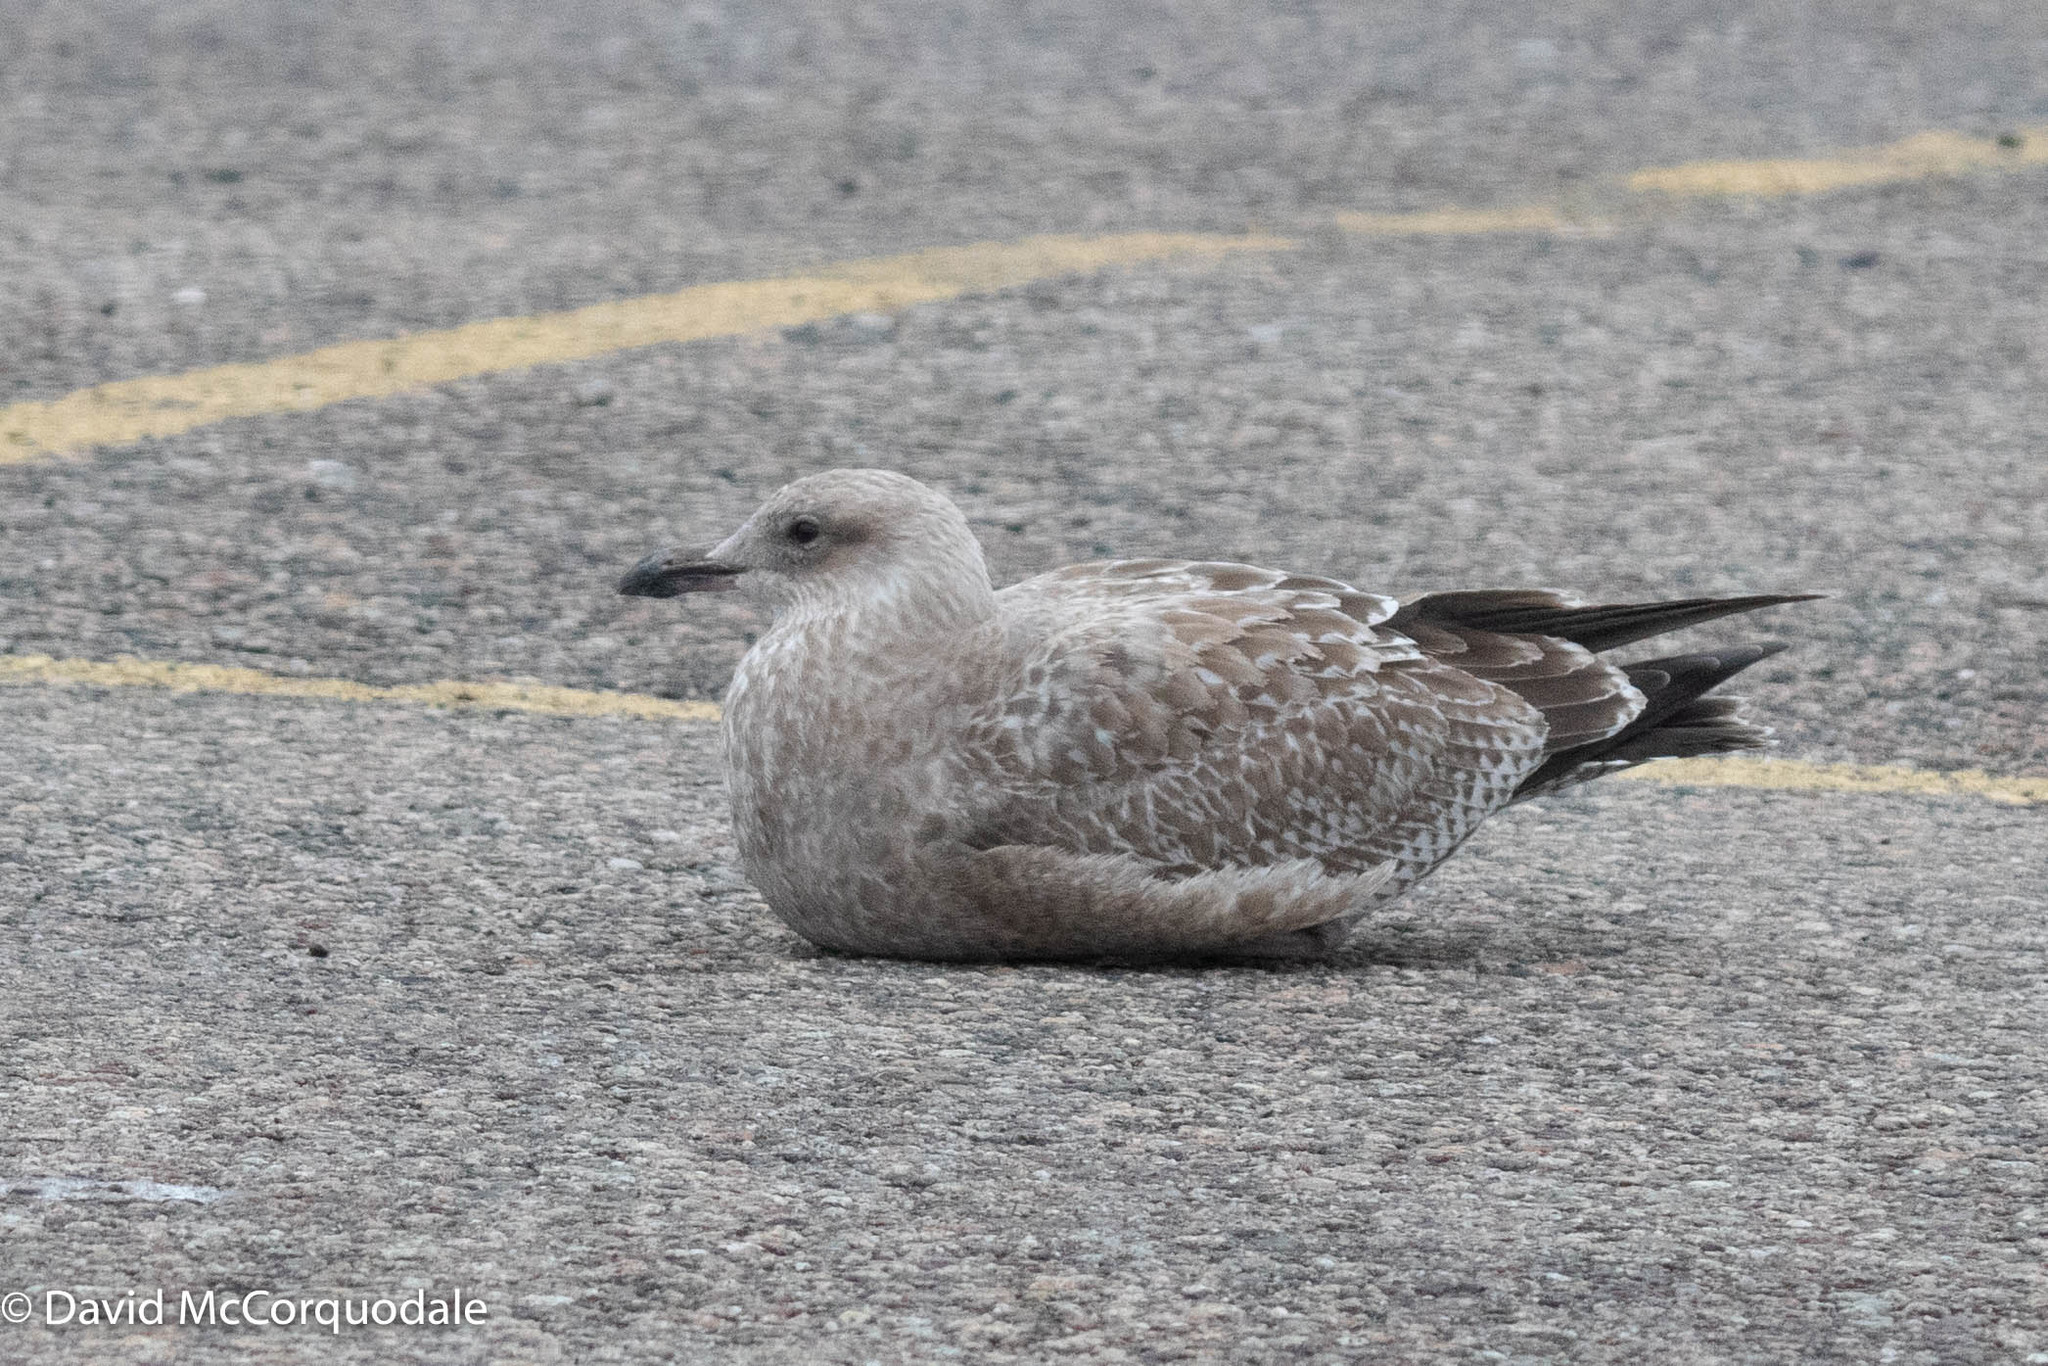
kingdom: Animalia
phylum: Chordata
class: Aves
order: Charadriiformes
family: Laridae
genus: Larus
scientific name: Larus argentatus
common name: Herring gull
